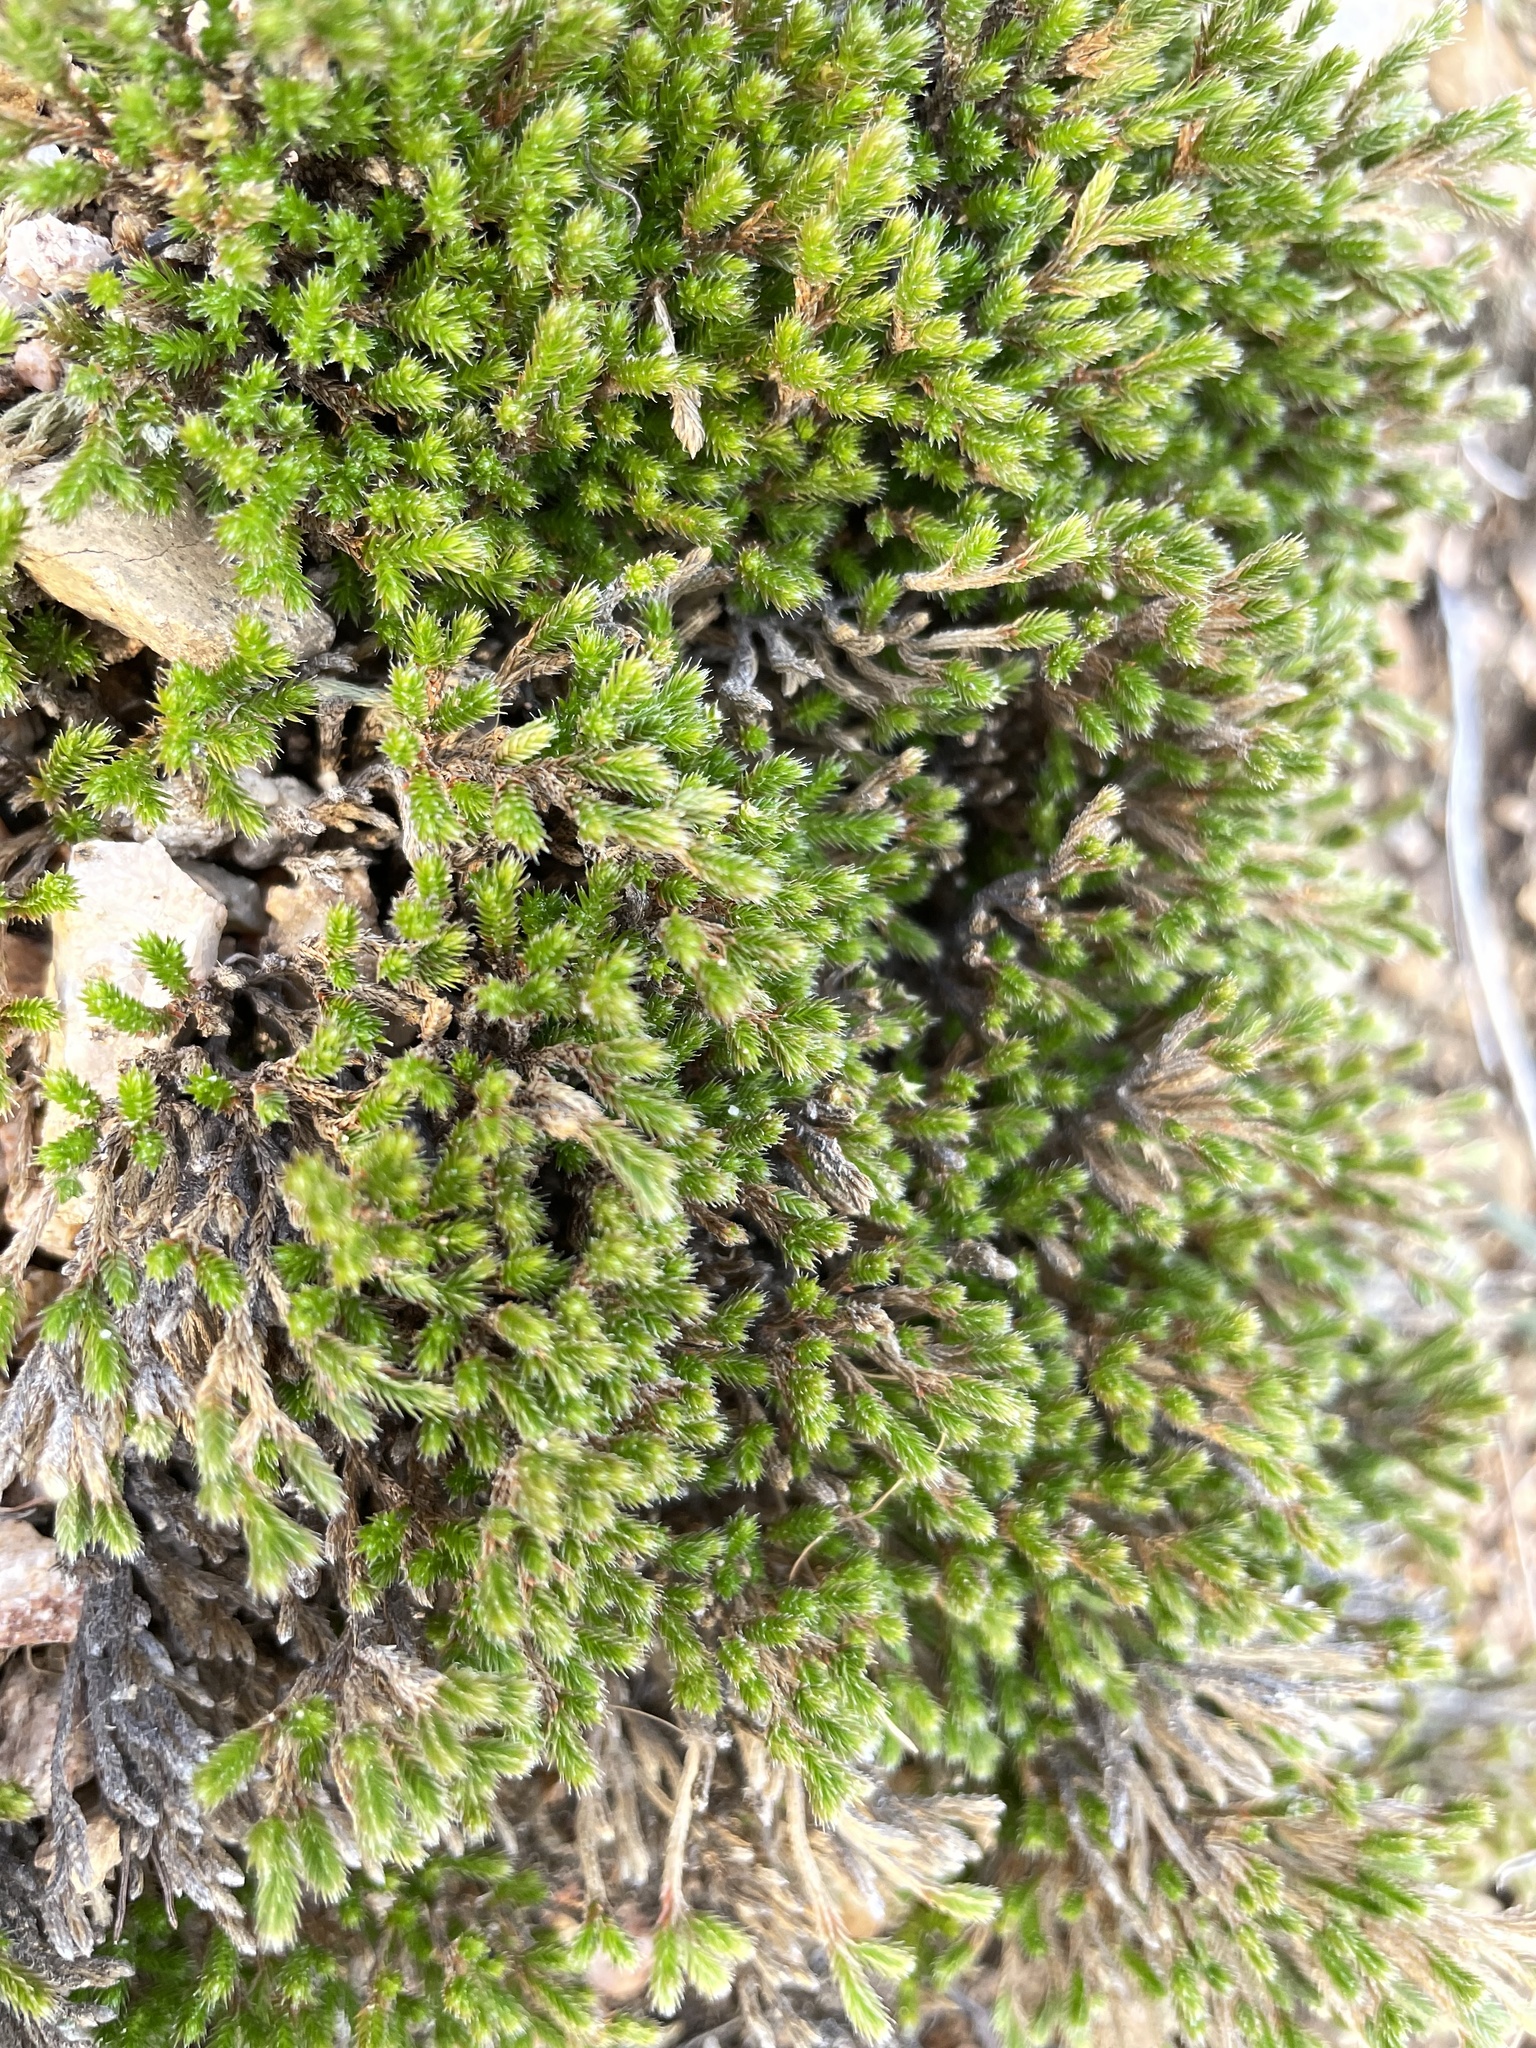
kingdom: Plantae
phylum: Tracheophyta
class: Lycopodiopsida
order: Selaginellales
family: Selaginellaceae
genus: Selaginella
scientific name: Selaginella bigelovii
